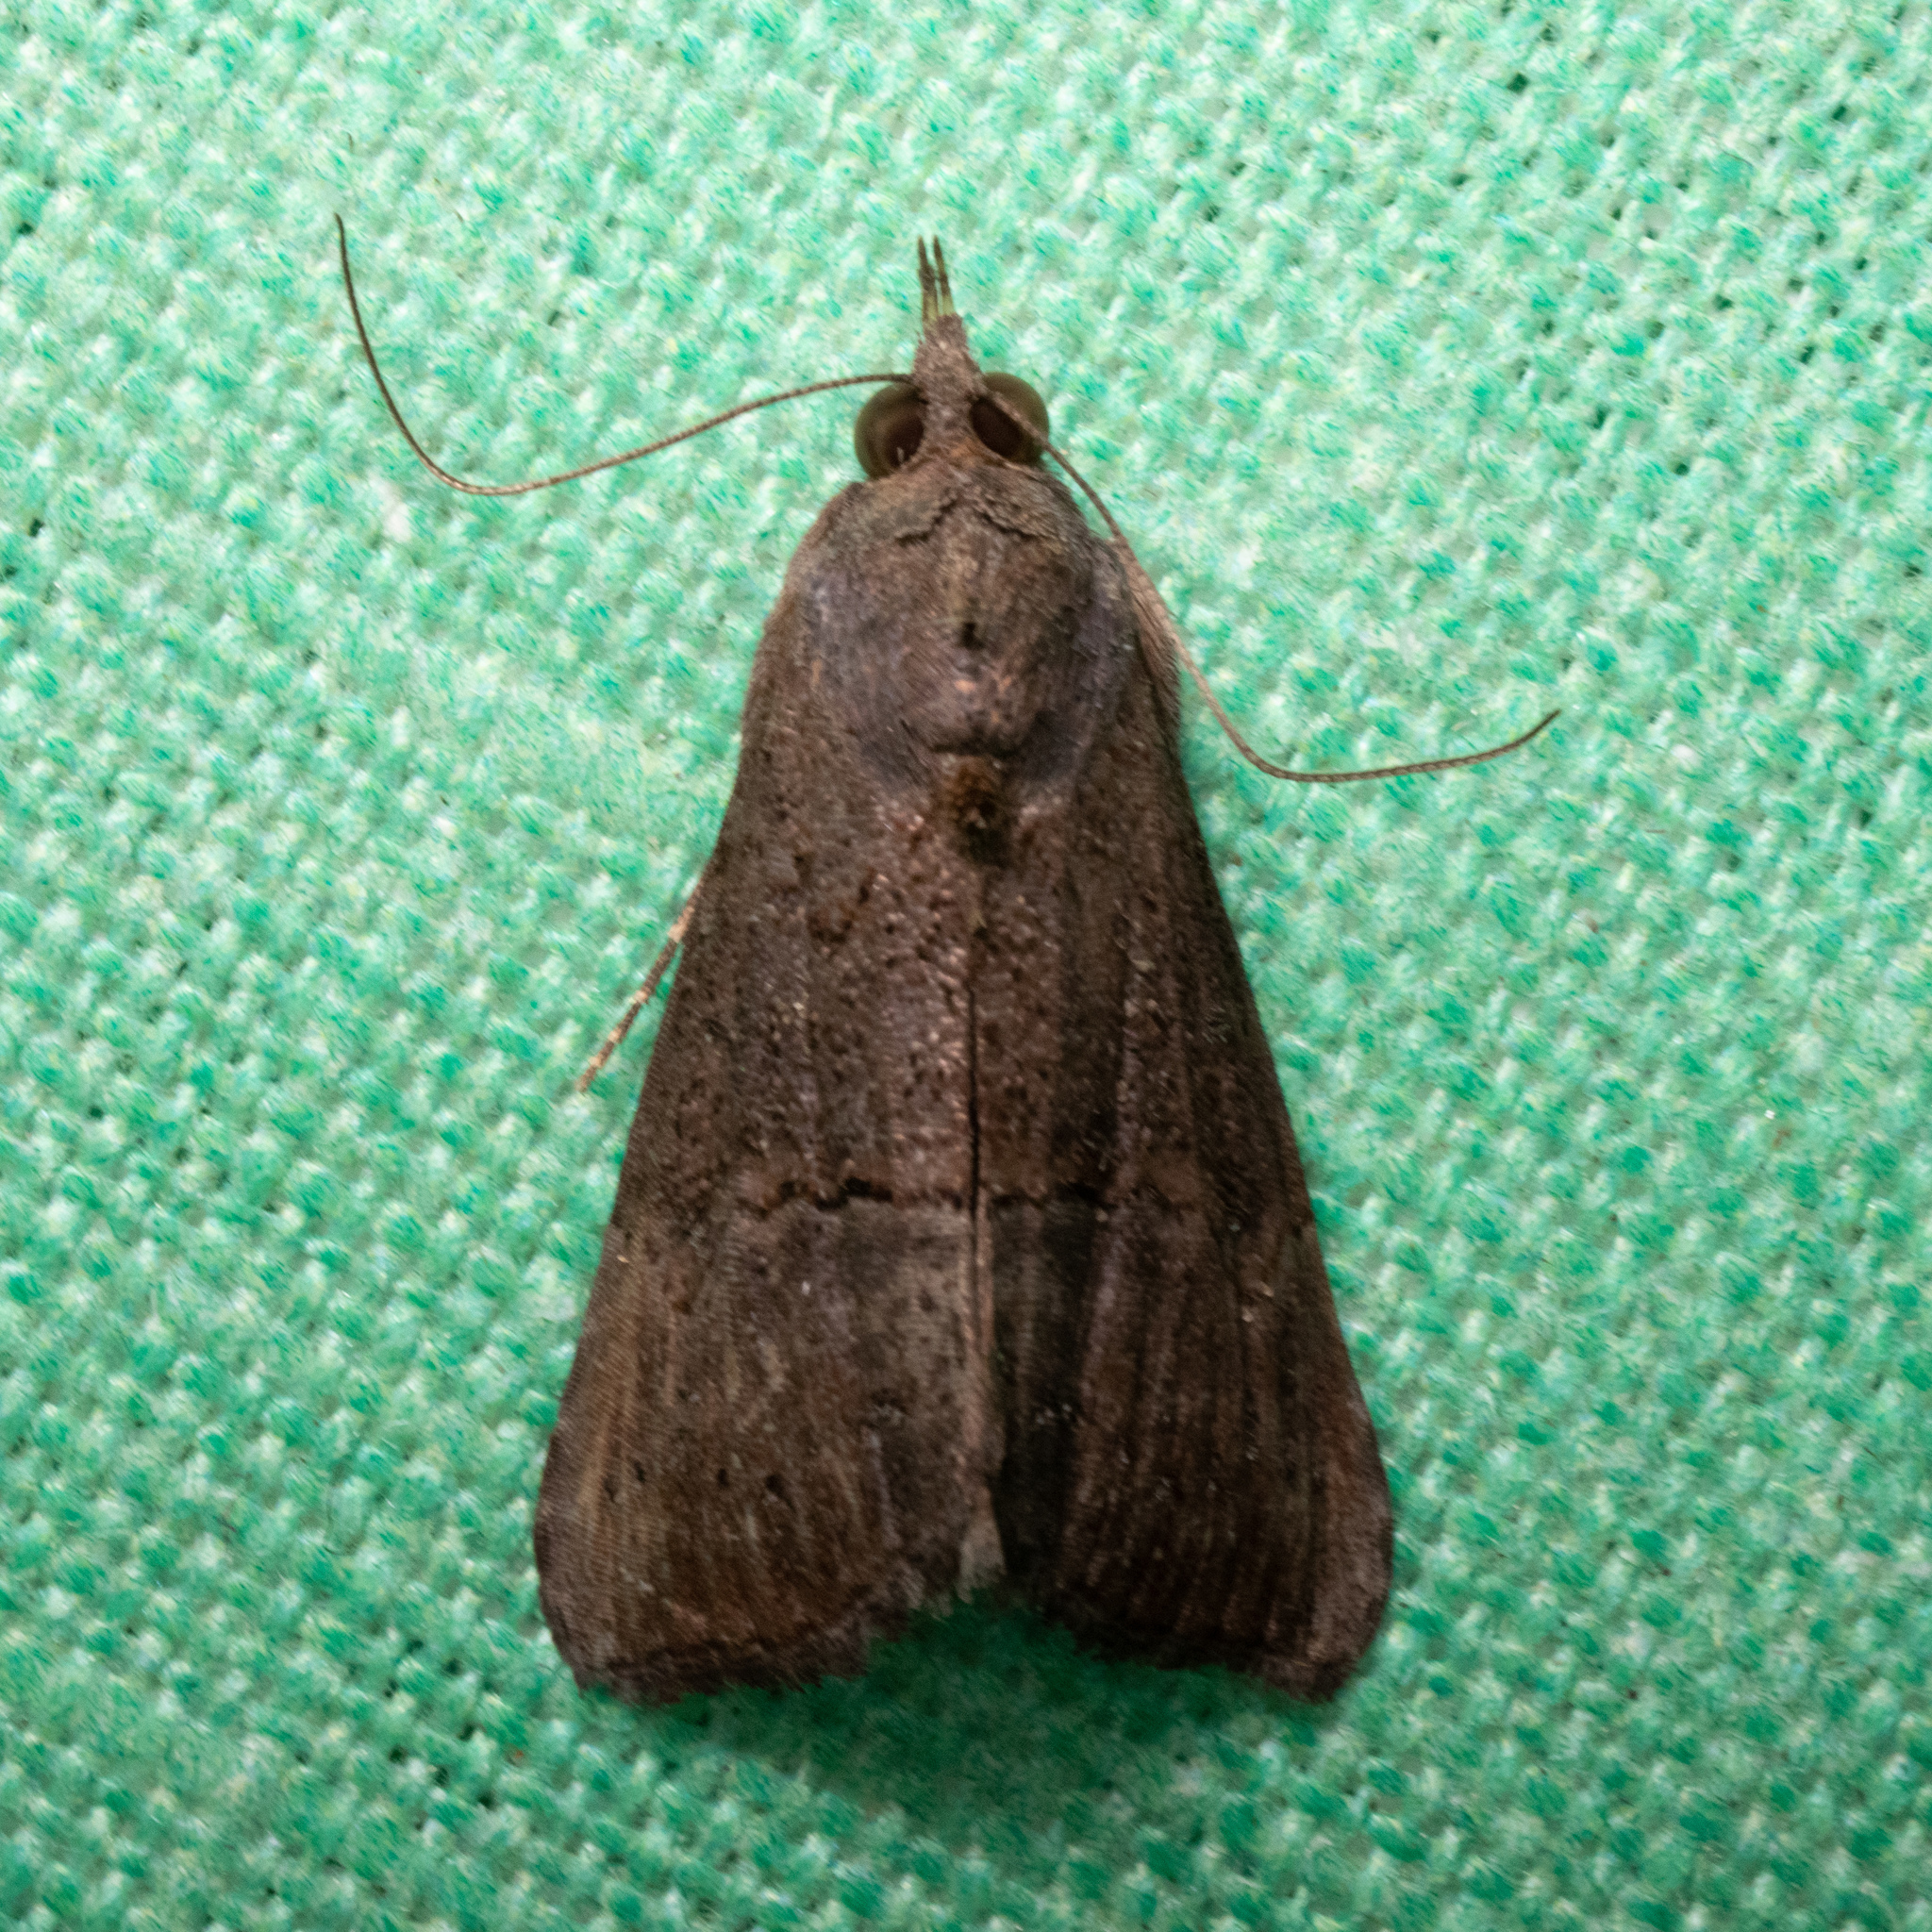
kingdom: Animalia
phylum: Arthropoda
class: Insecta
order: Lepidoptera
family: Erebidae
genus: Hypena
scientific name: Hypena scabra
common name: Green cloverworm
